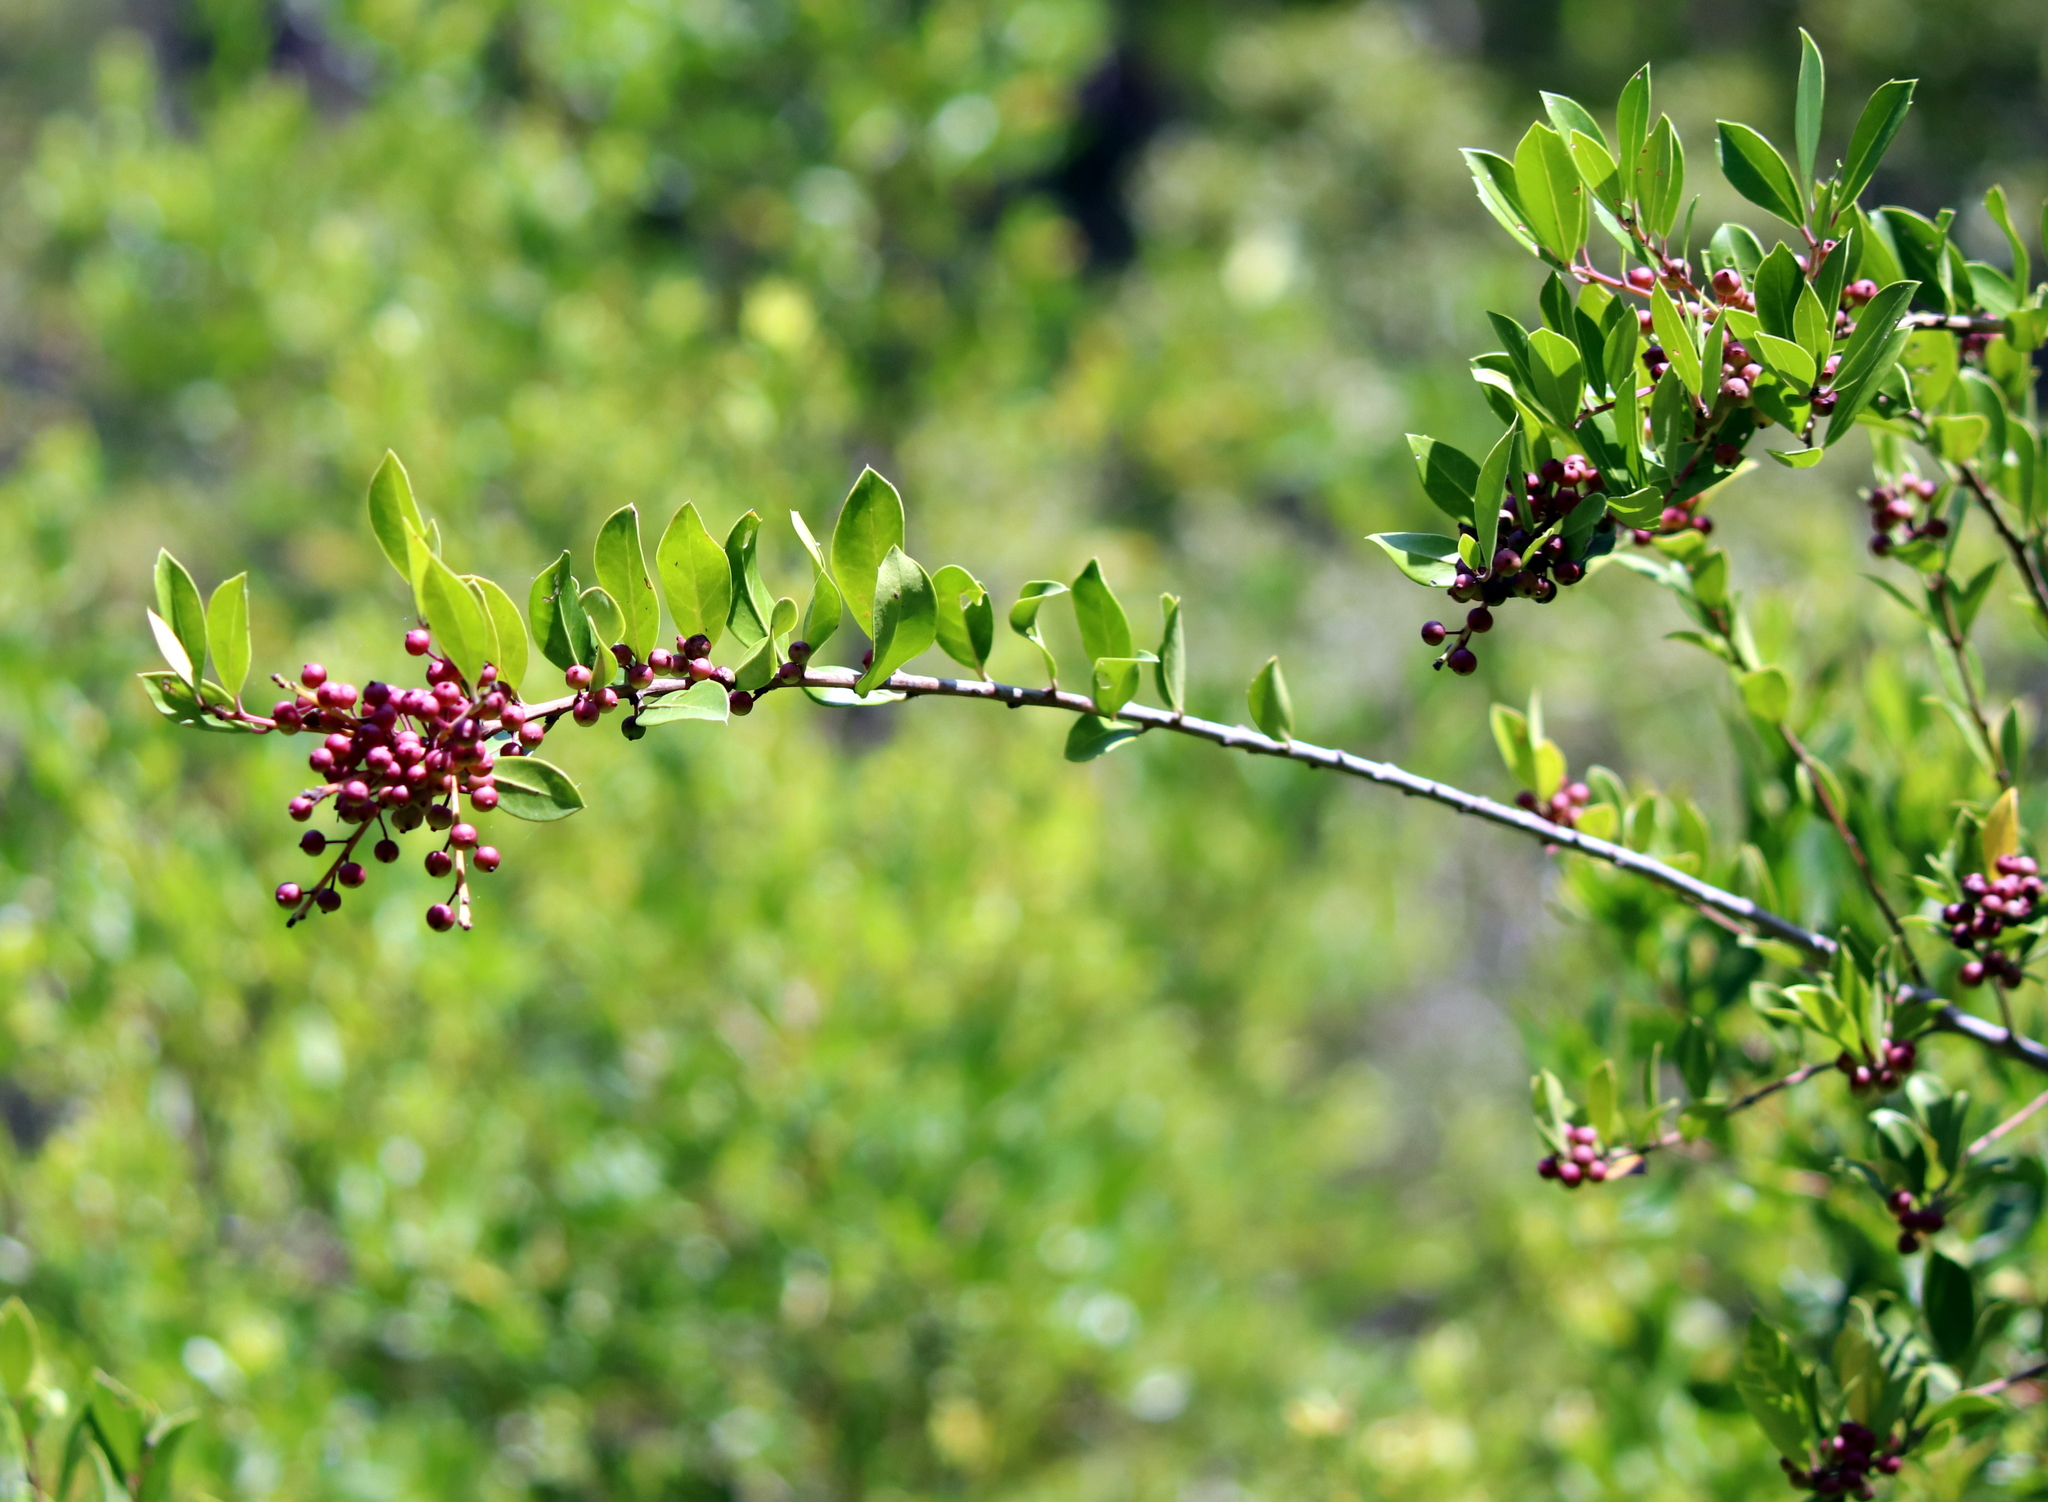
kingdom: Plantae
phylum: Tracheophyta
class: Magnoliopsida
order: Aquifoliales
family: Aquifoliaceae
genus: Ilex
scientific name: Ilex glabra
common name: Bitter gallberry
